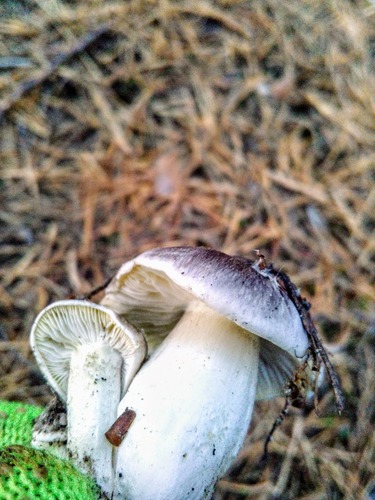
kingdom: Fungi
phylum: Basidiomycota
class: Agaricomycetes
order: Agaricales
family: Tricholomataceae
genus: Tricholoma
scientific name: Tricholoma terreum
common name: Grey knight
